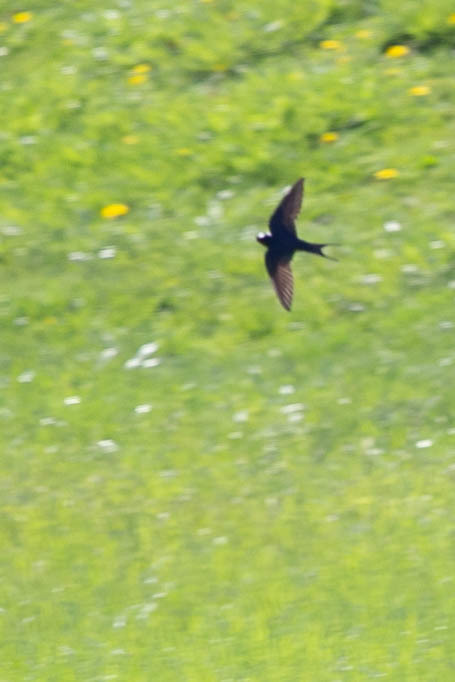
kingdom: Animalia
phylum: Chordata
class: Aves
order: Passeriformes
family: Hirundinidae
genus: Hirundo
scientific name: Hirundo rustica
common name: Barn swallow
